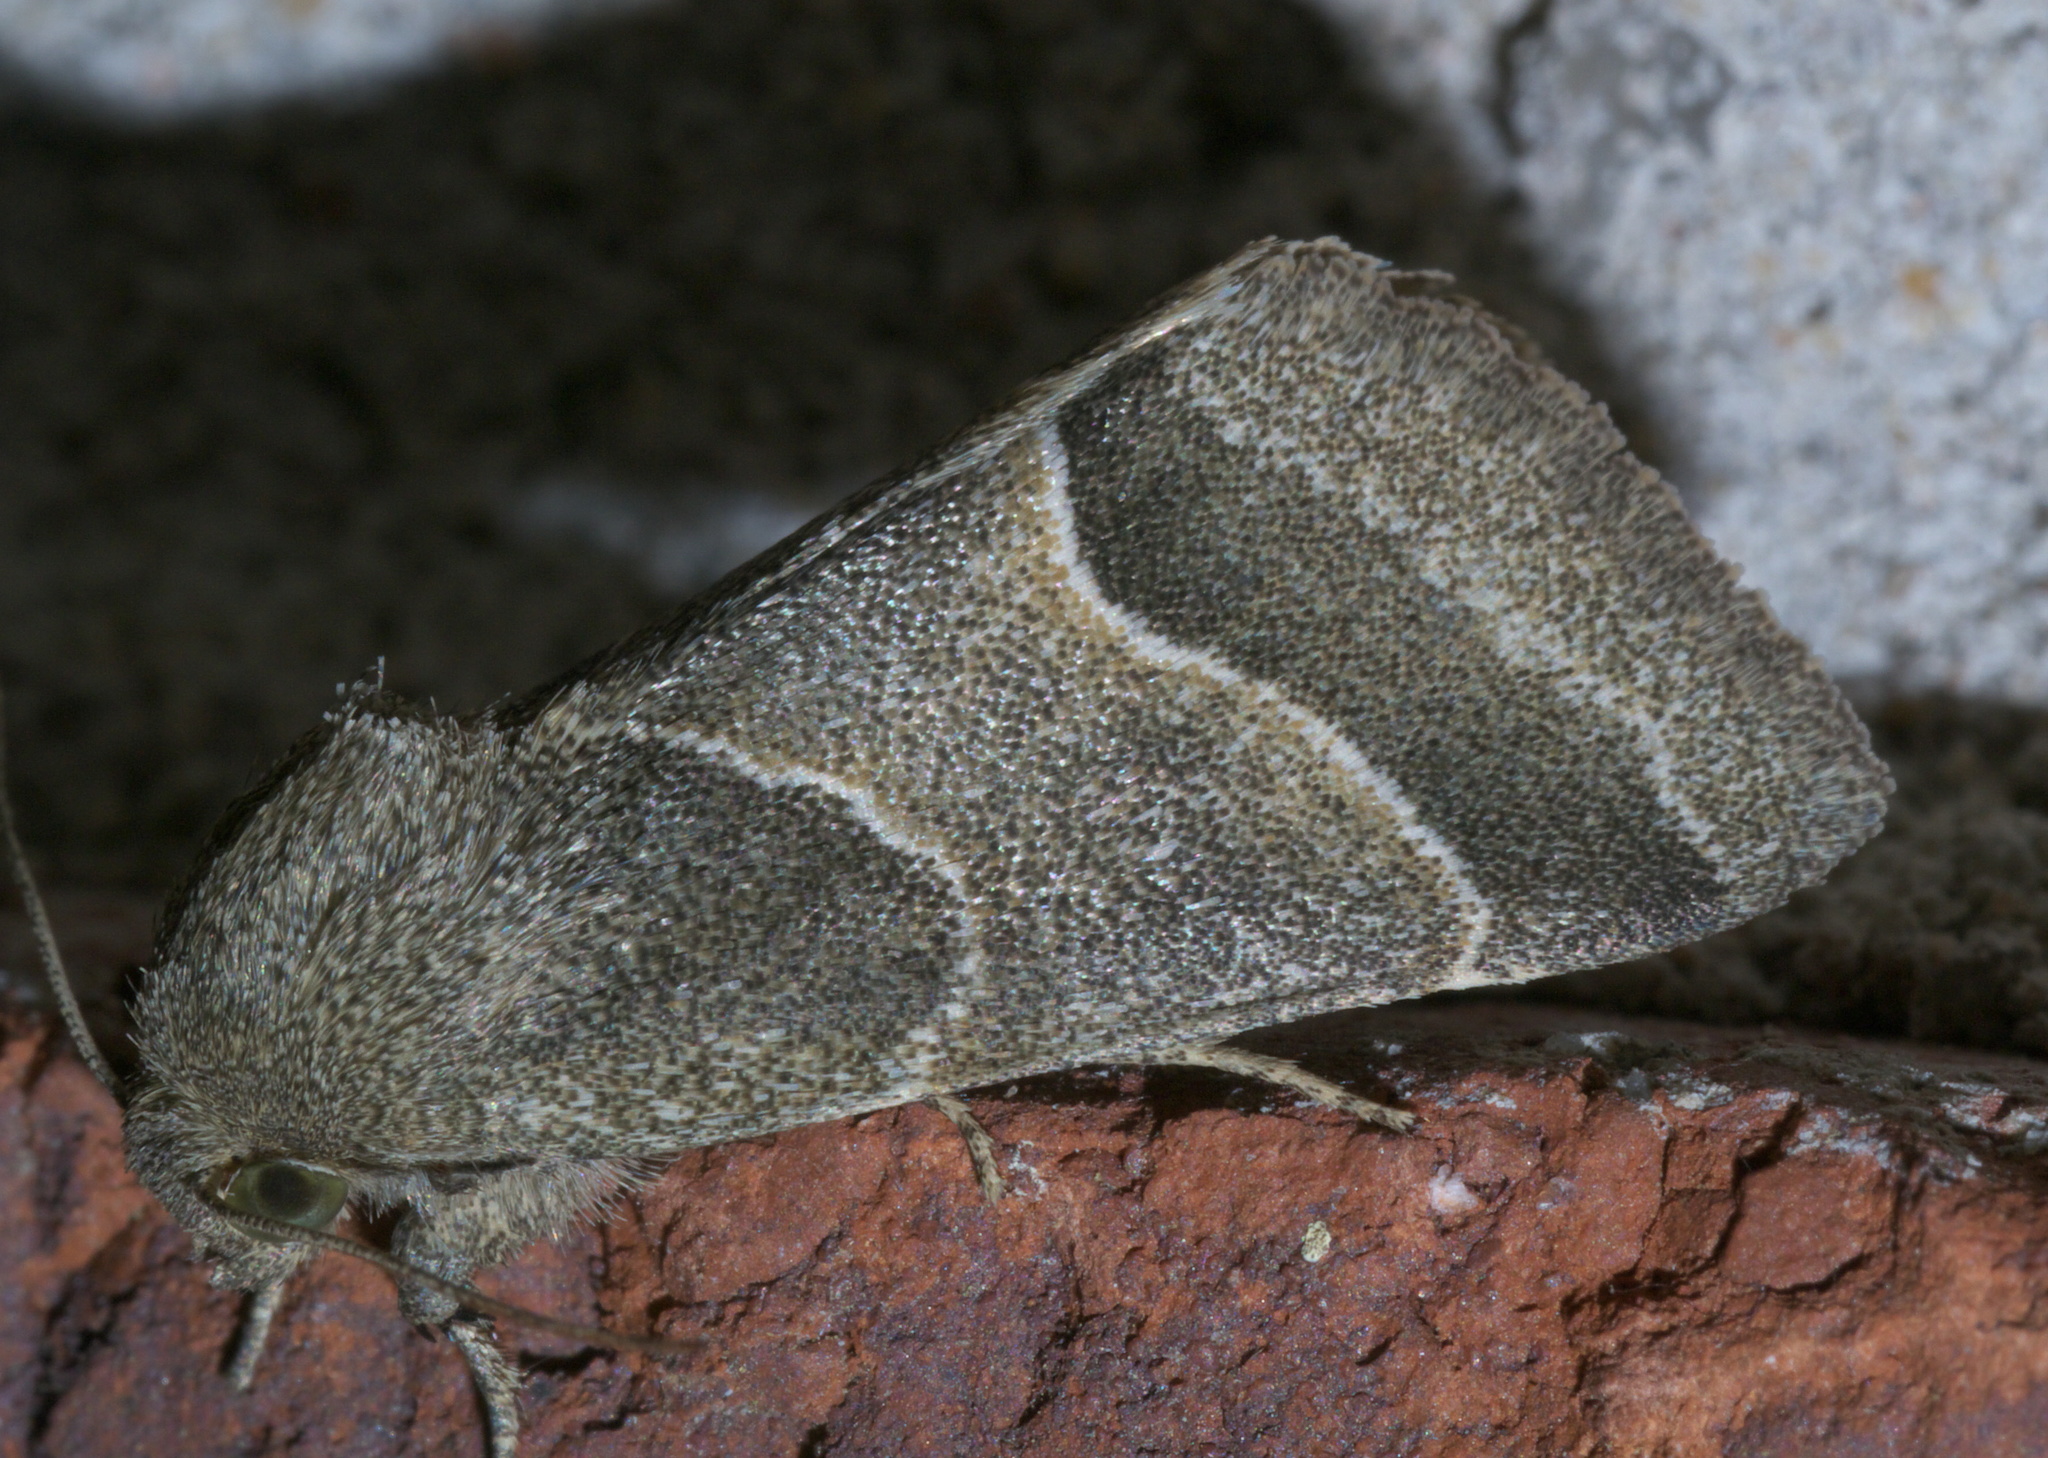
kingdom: Animalia
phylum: Arthropoda
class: Insecta
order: Lepidoptera
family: Noctuidae
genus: Schinia
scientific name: Schinia rivulosa
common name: Scarce meal-moth
